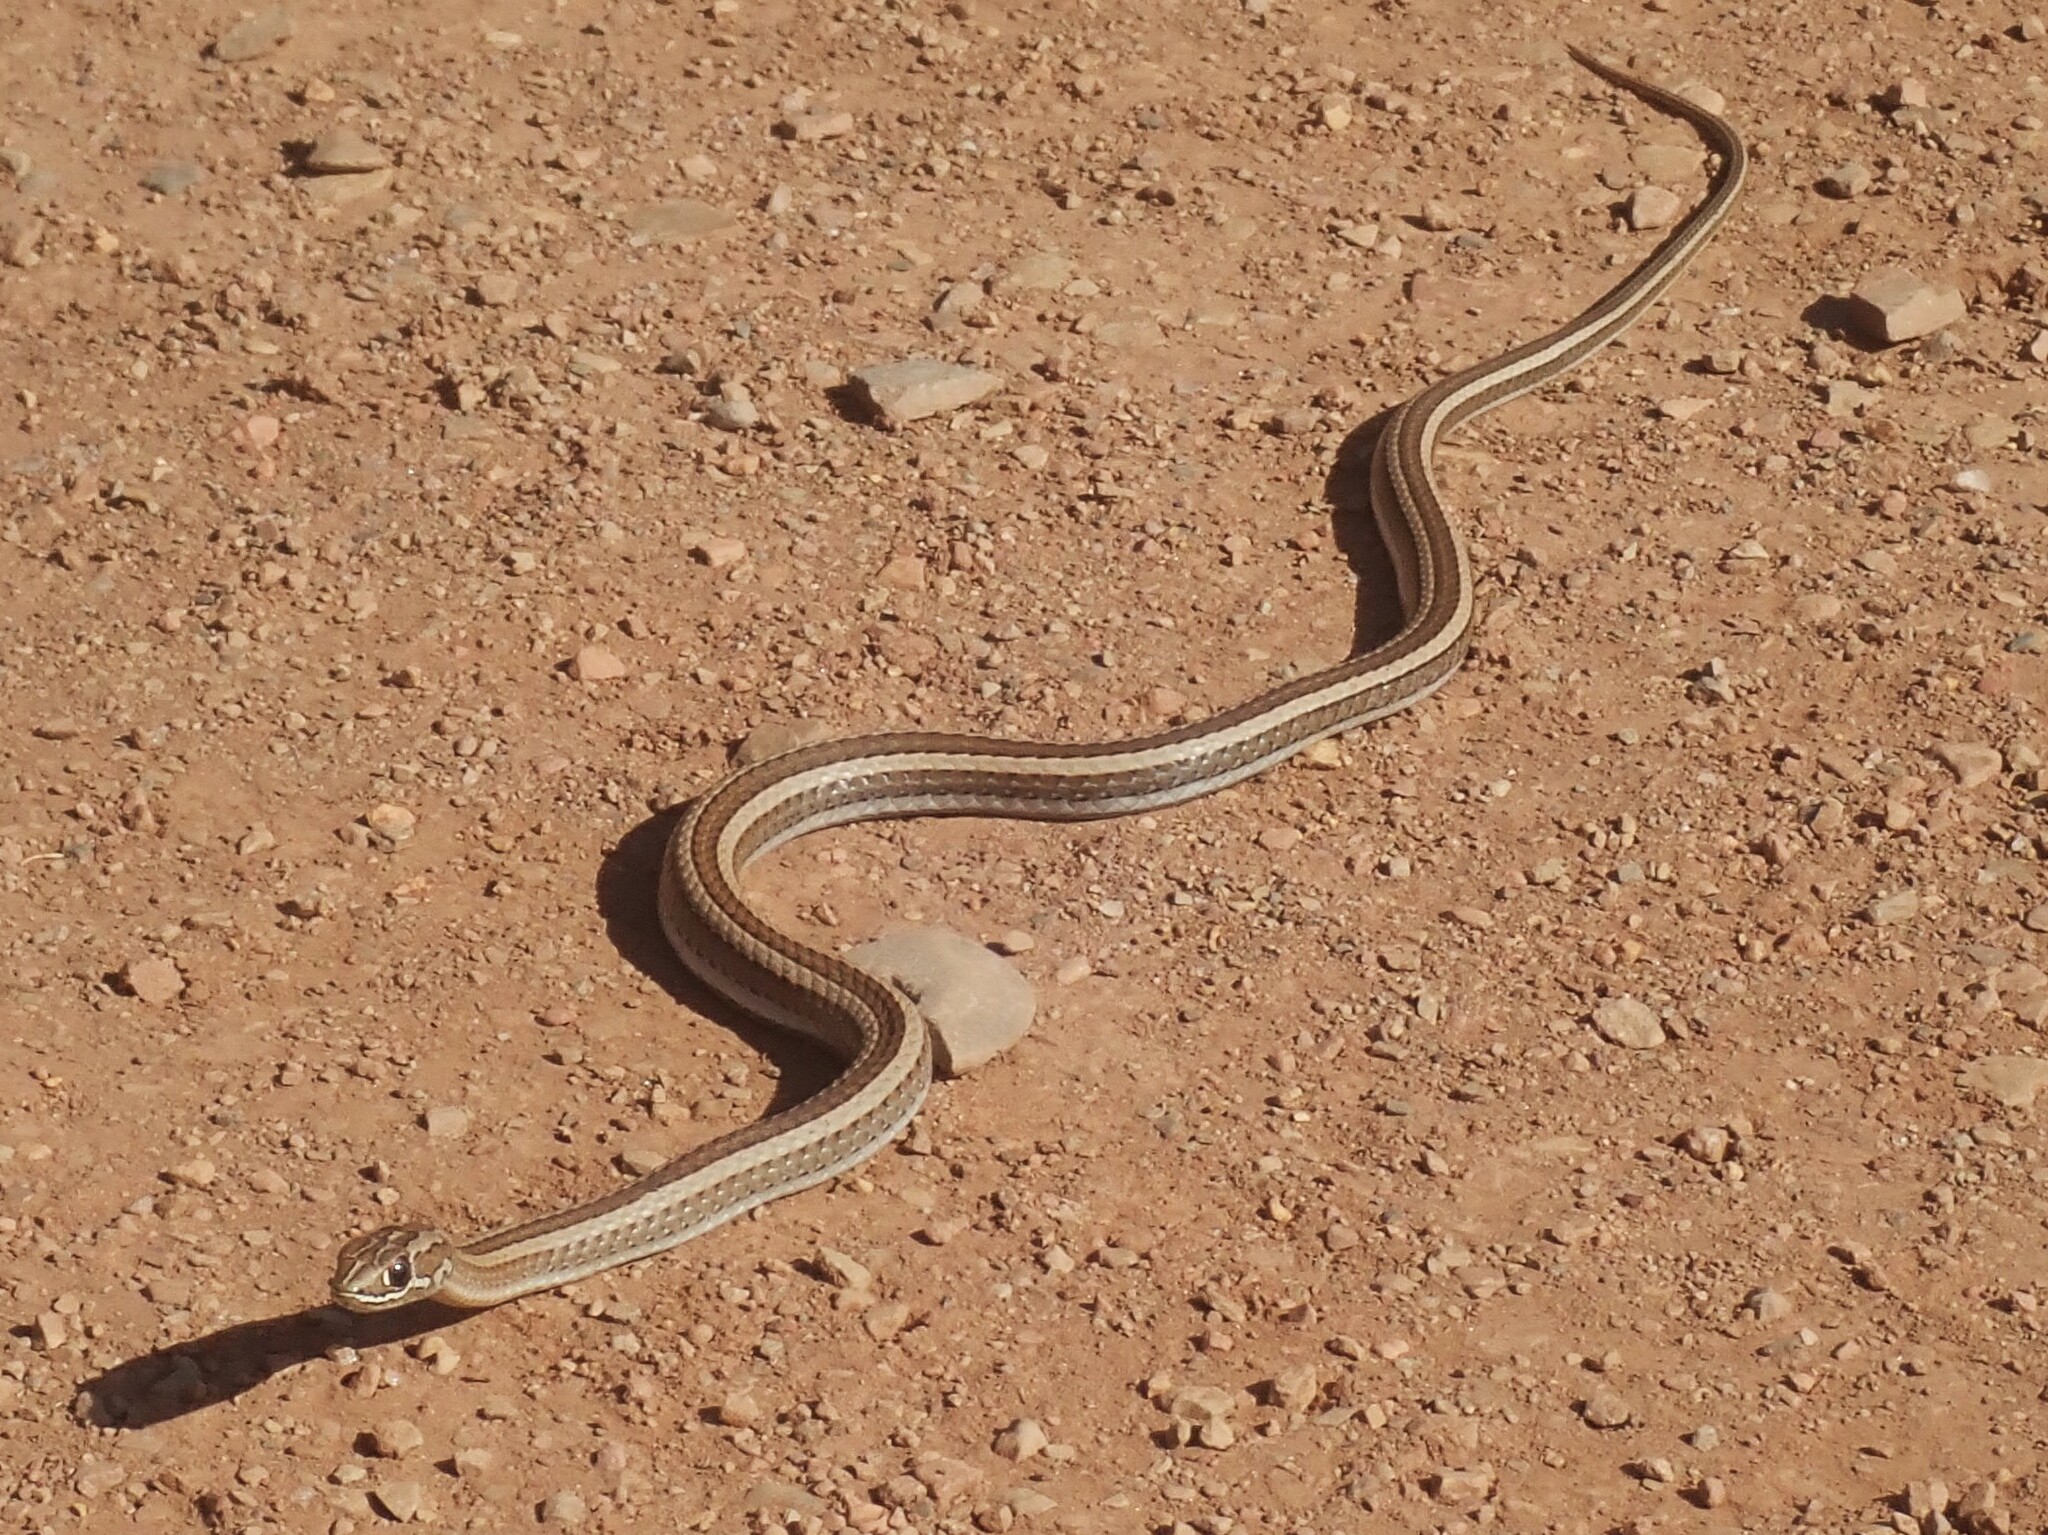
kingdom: Animalia
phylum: Chordata
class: Squamata
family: Psammophiidae
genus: Psammophis
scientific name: Psammophis crucifer
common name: Cross-marked grass snake
